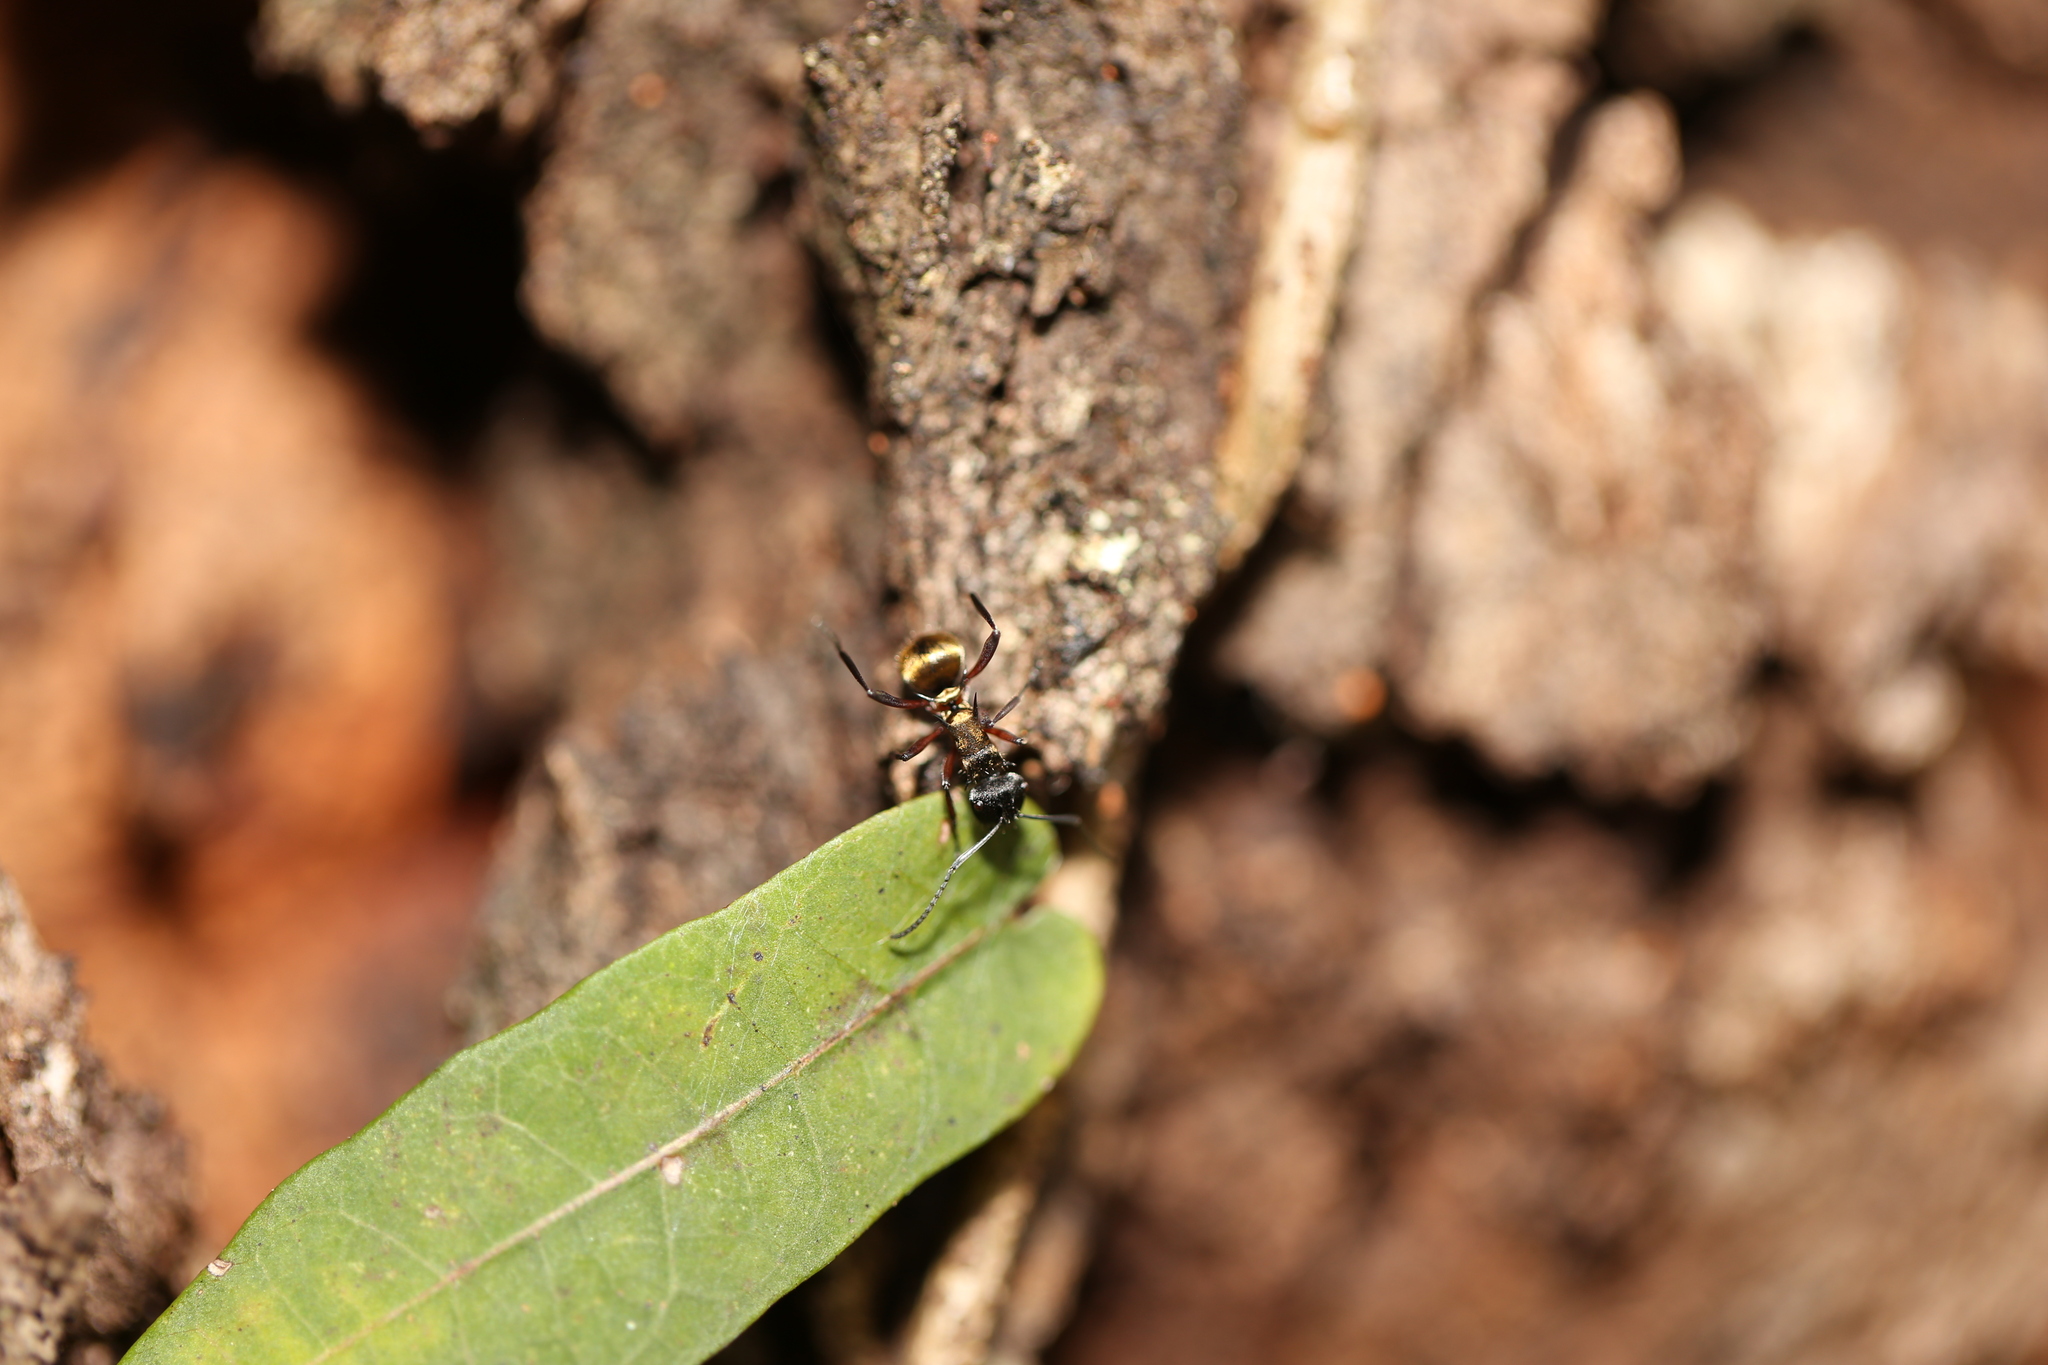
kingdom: Animalia
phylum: Arthropoda
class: Insecta
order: Hymenoptera
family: Formicidae
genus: Polyrhachis
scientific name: Polyrhachis rufifemur
